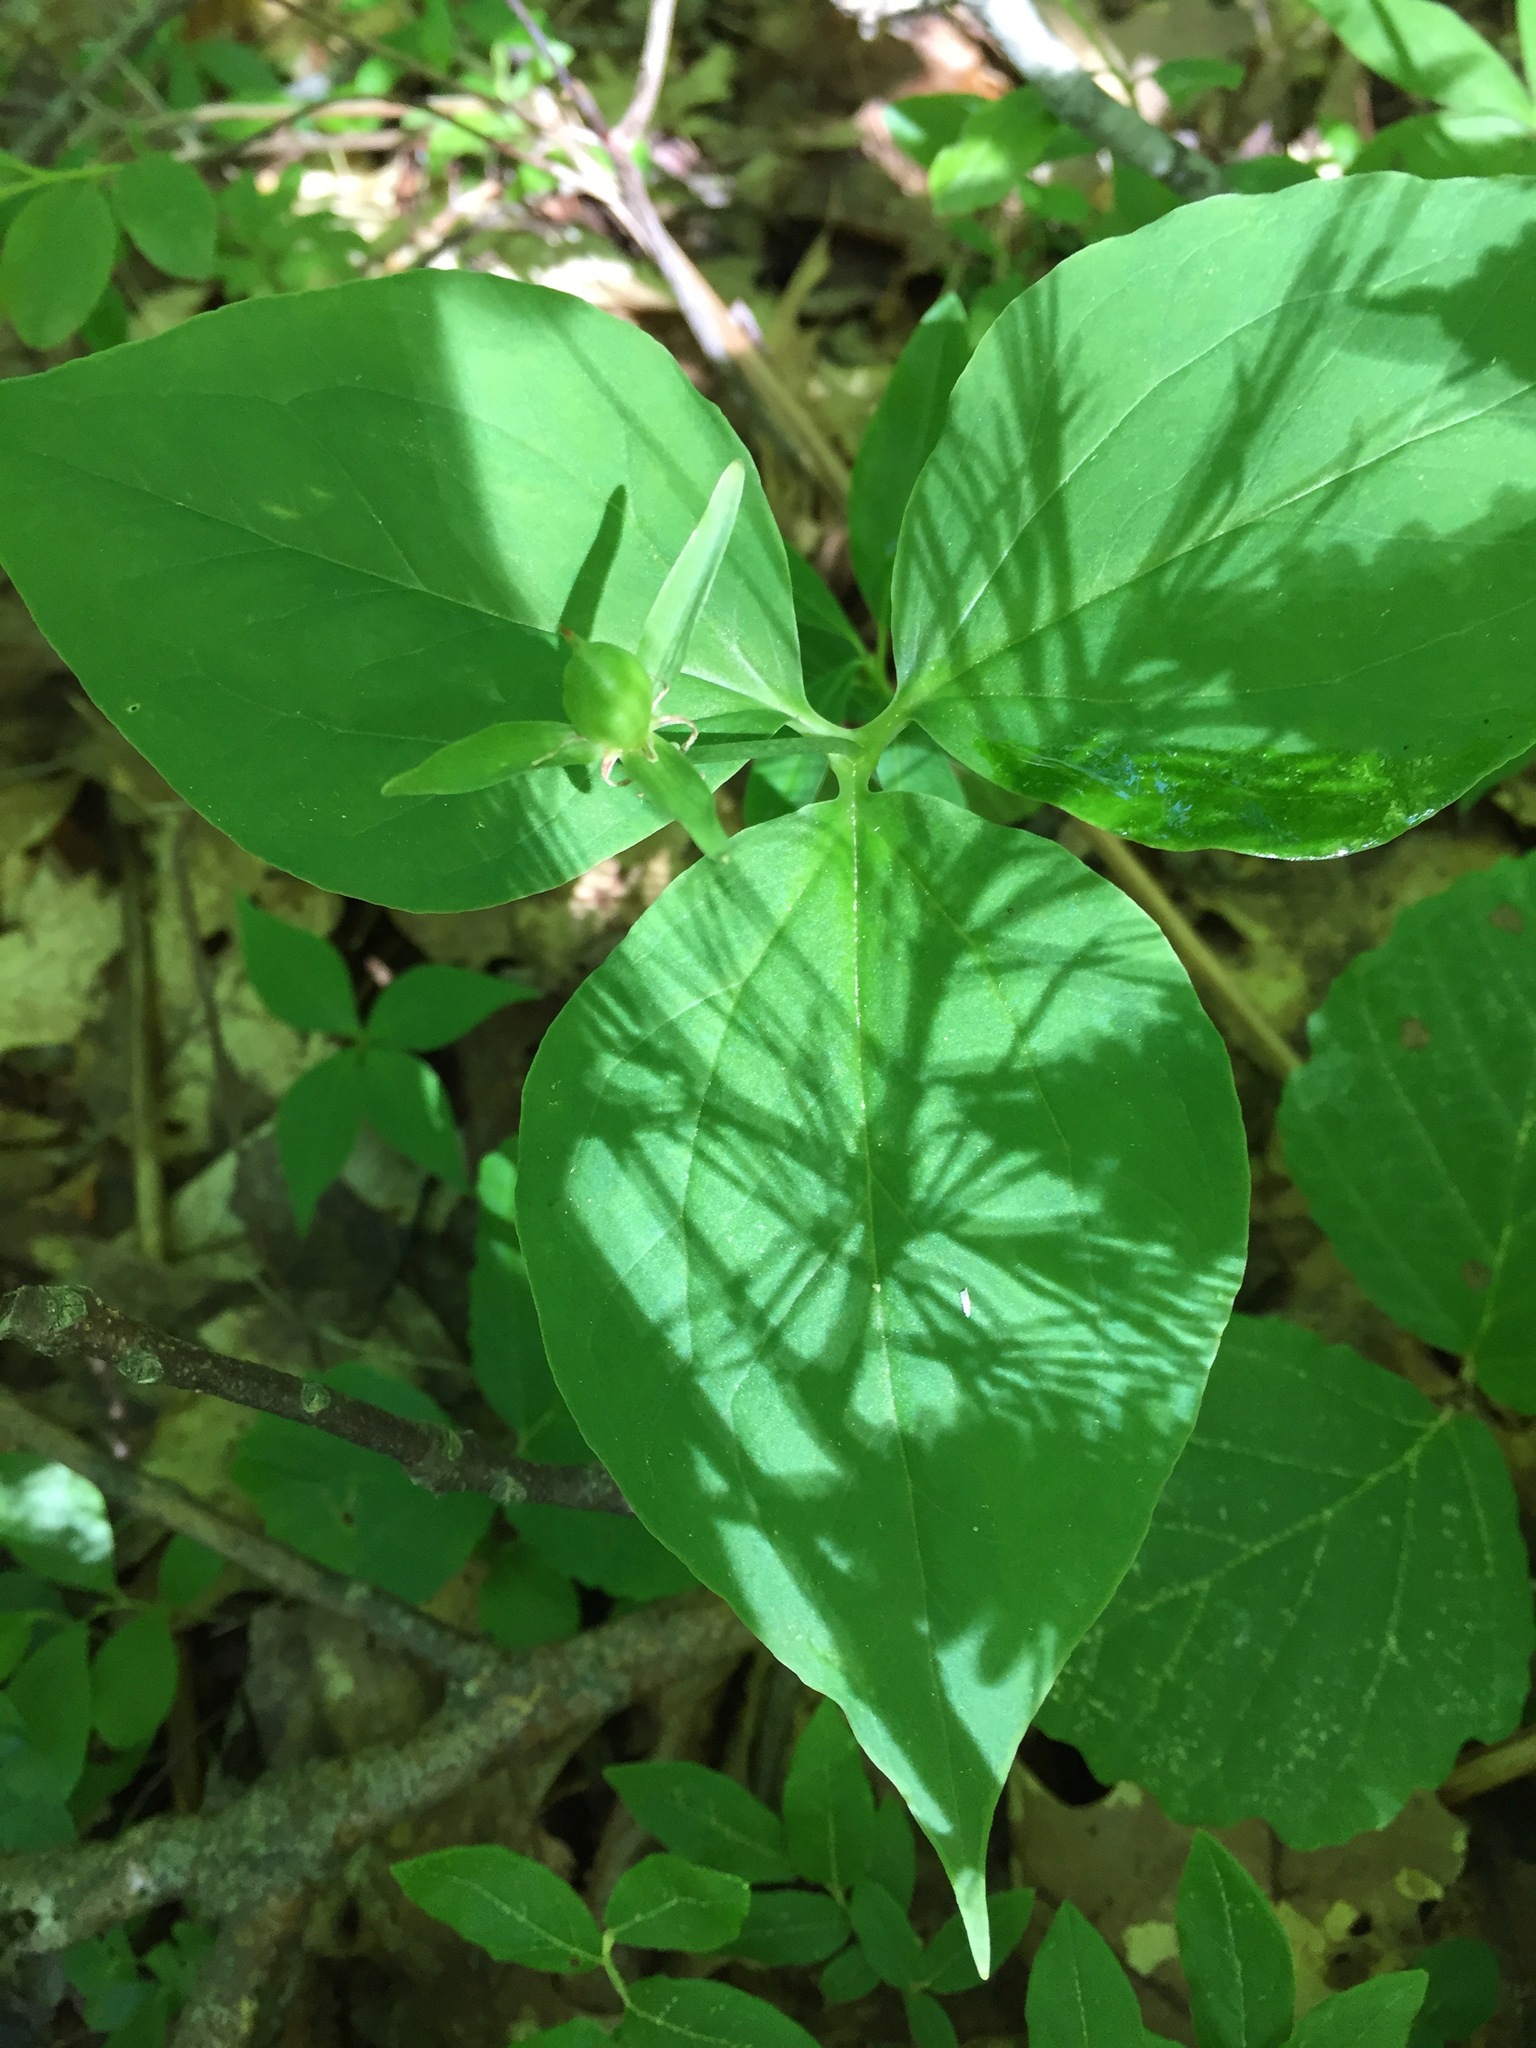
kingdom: Plantae
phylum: Tracheophyta
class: Liliopsida
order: Liliales
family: Melanthiaceae
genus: Trillium
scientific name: Trillium undulatum
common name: Paint trillium
